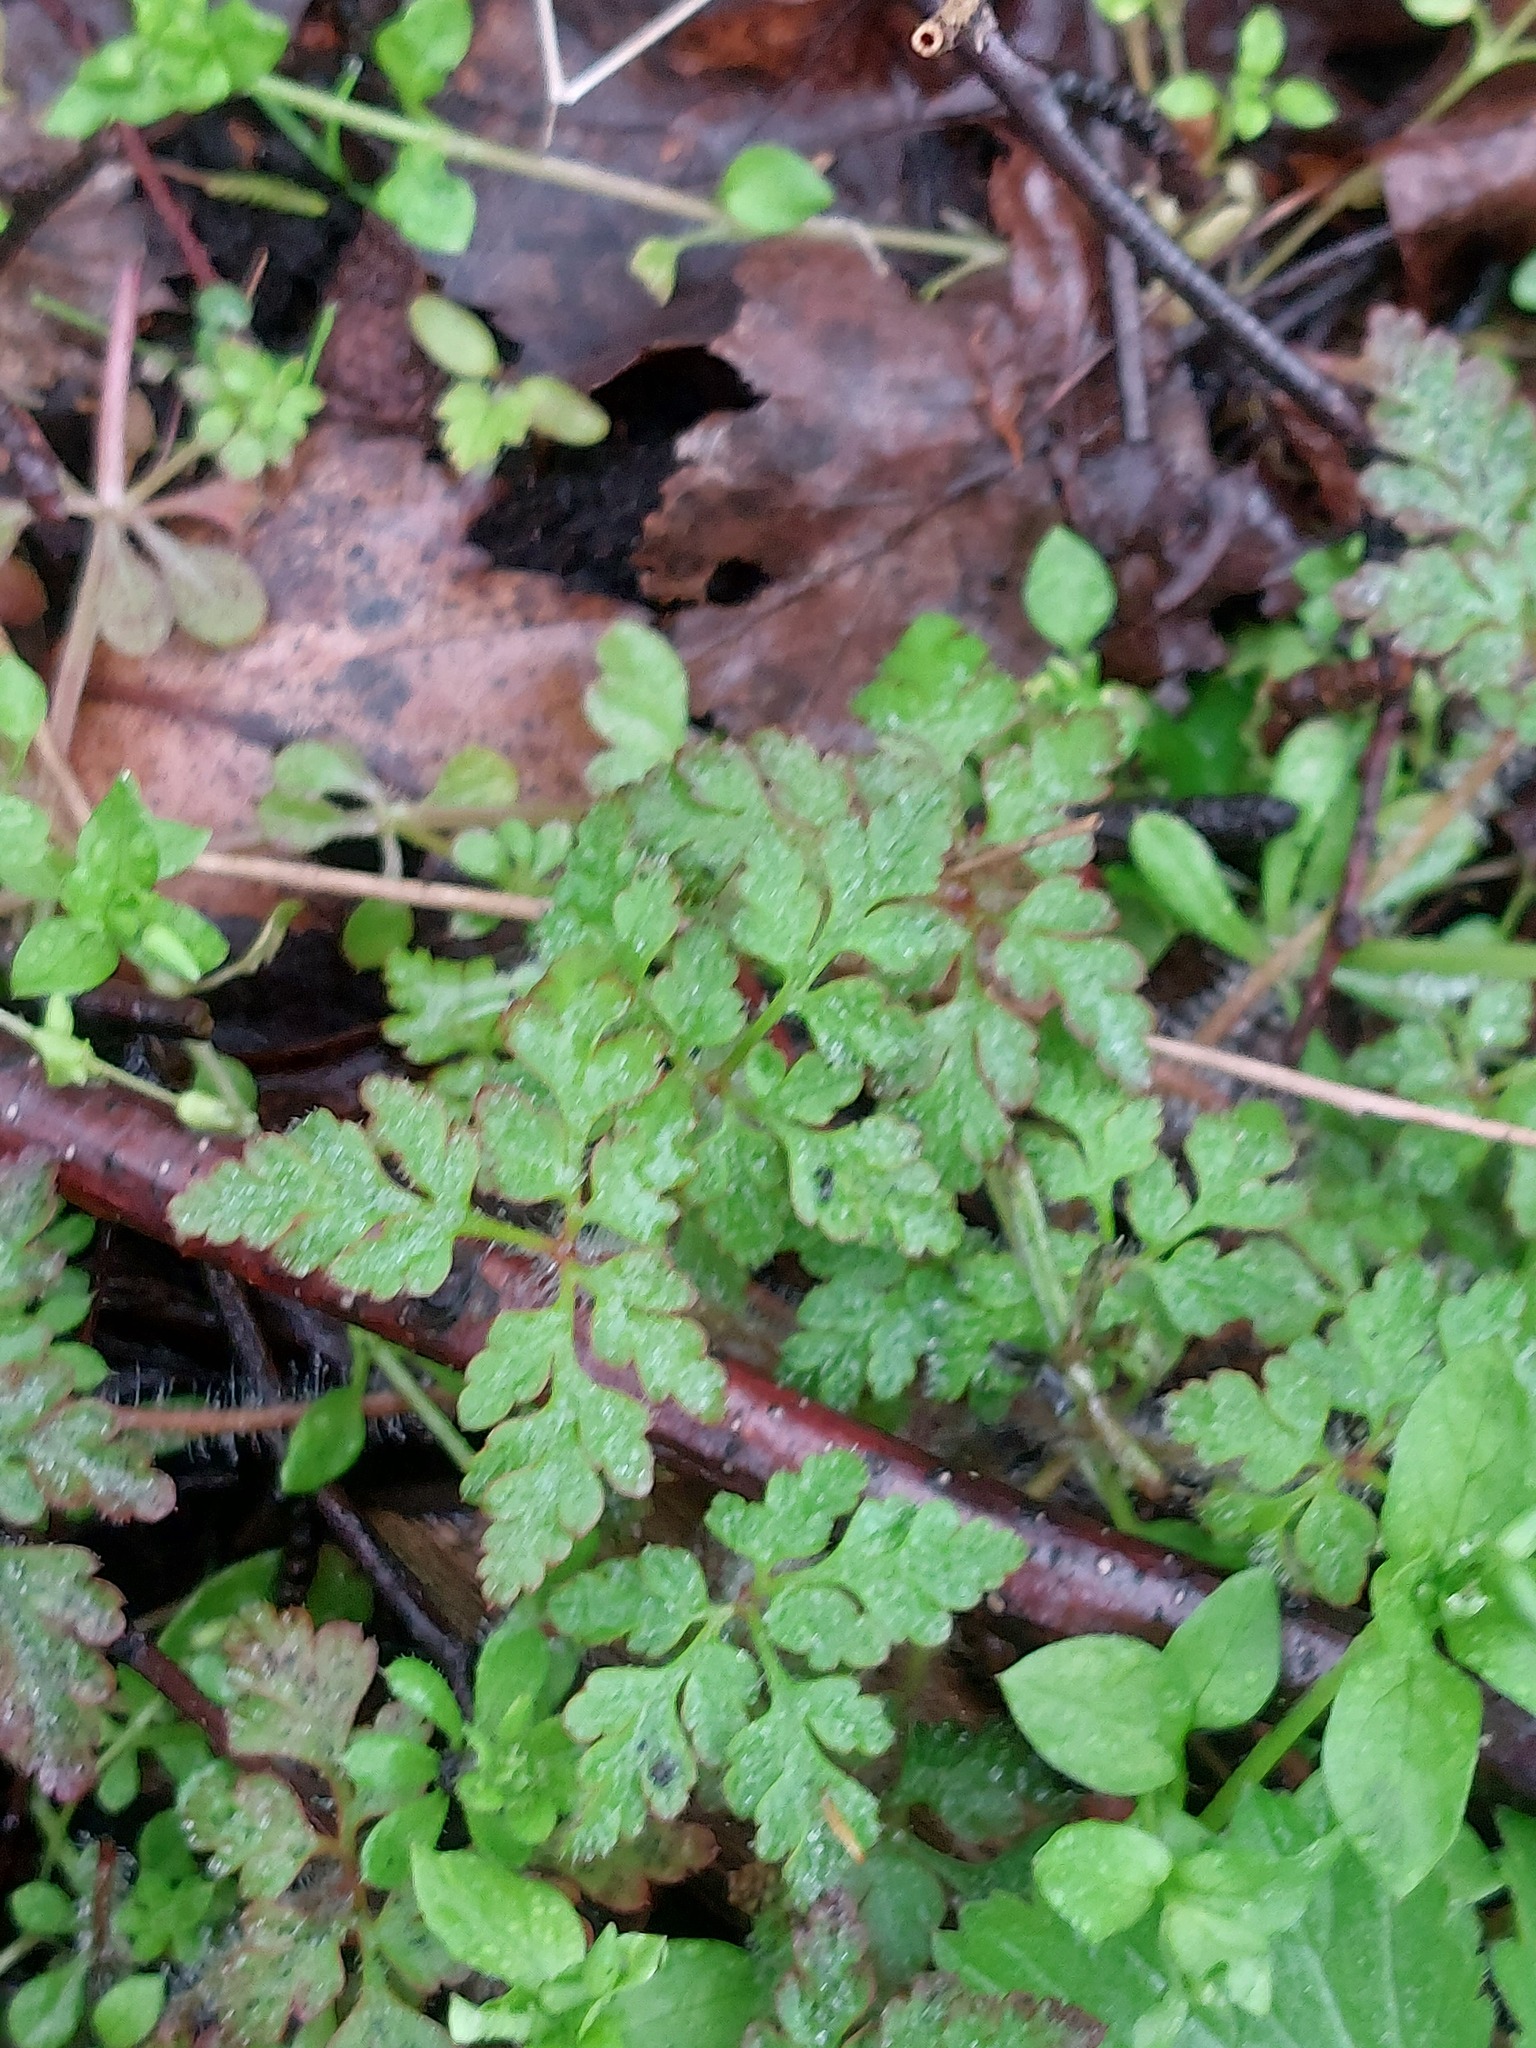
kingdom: Plantae
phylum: Tracheophyta
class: Magnoliopsida
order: Geraniales
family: Geraniaceae
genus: Geranium
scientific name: Geranium robertianum
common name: Herb-robert
